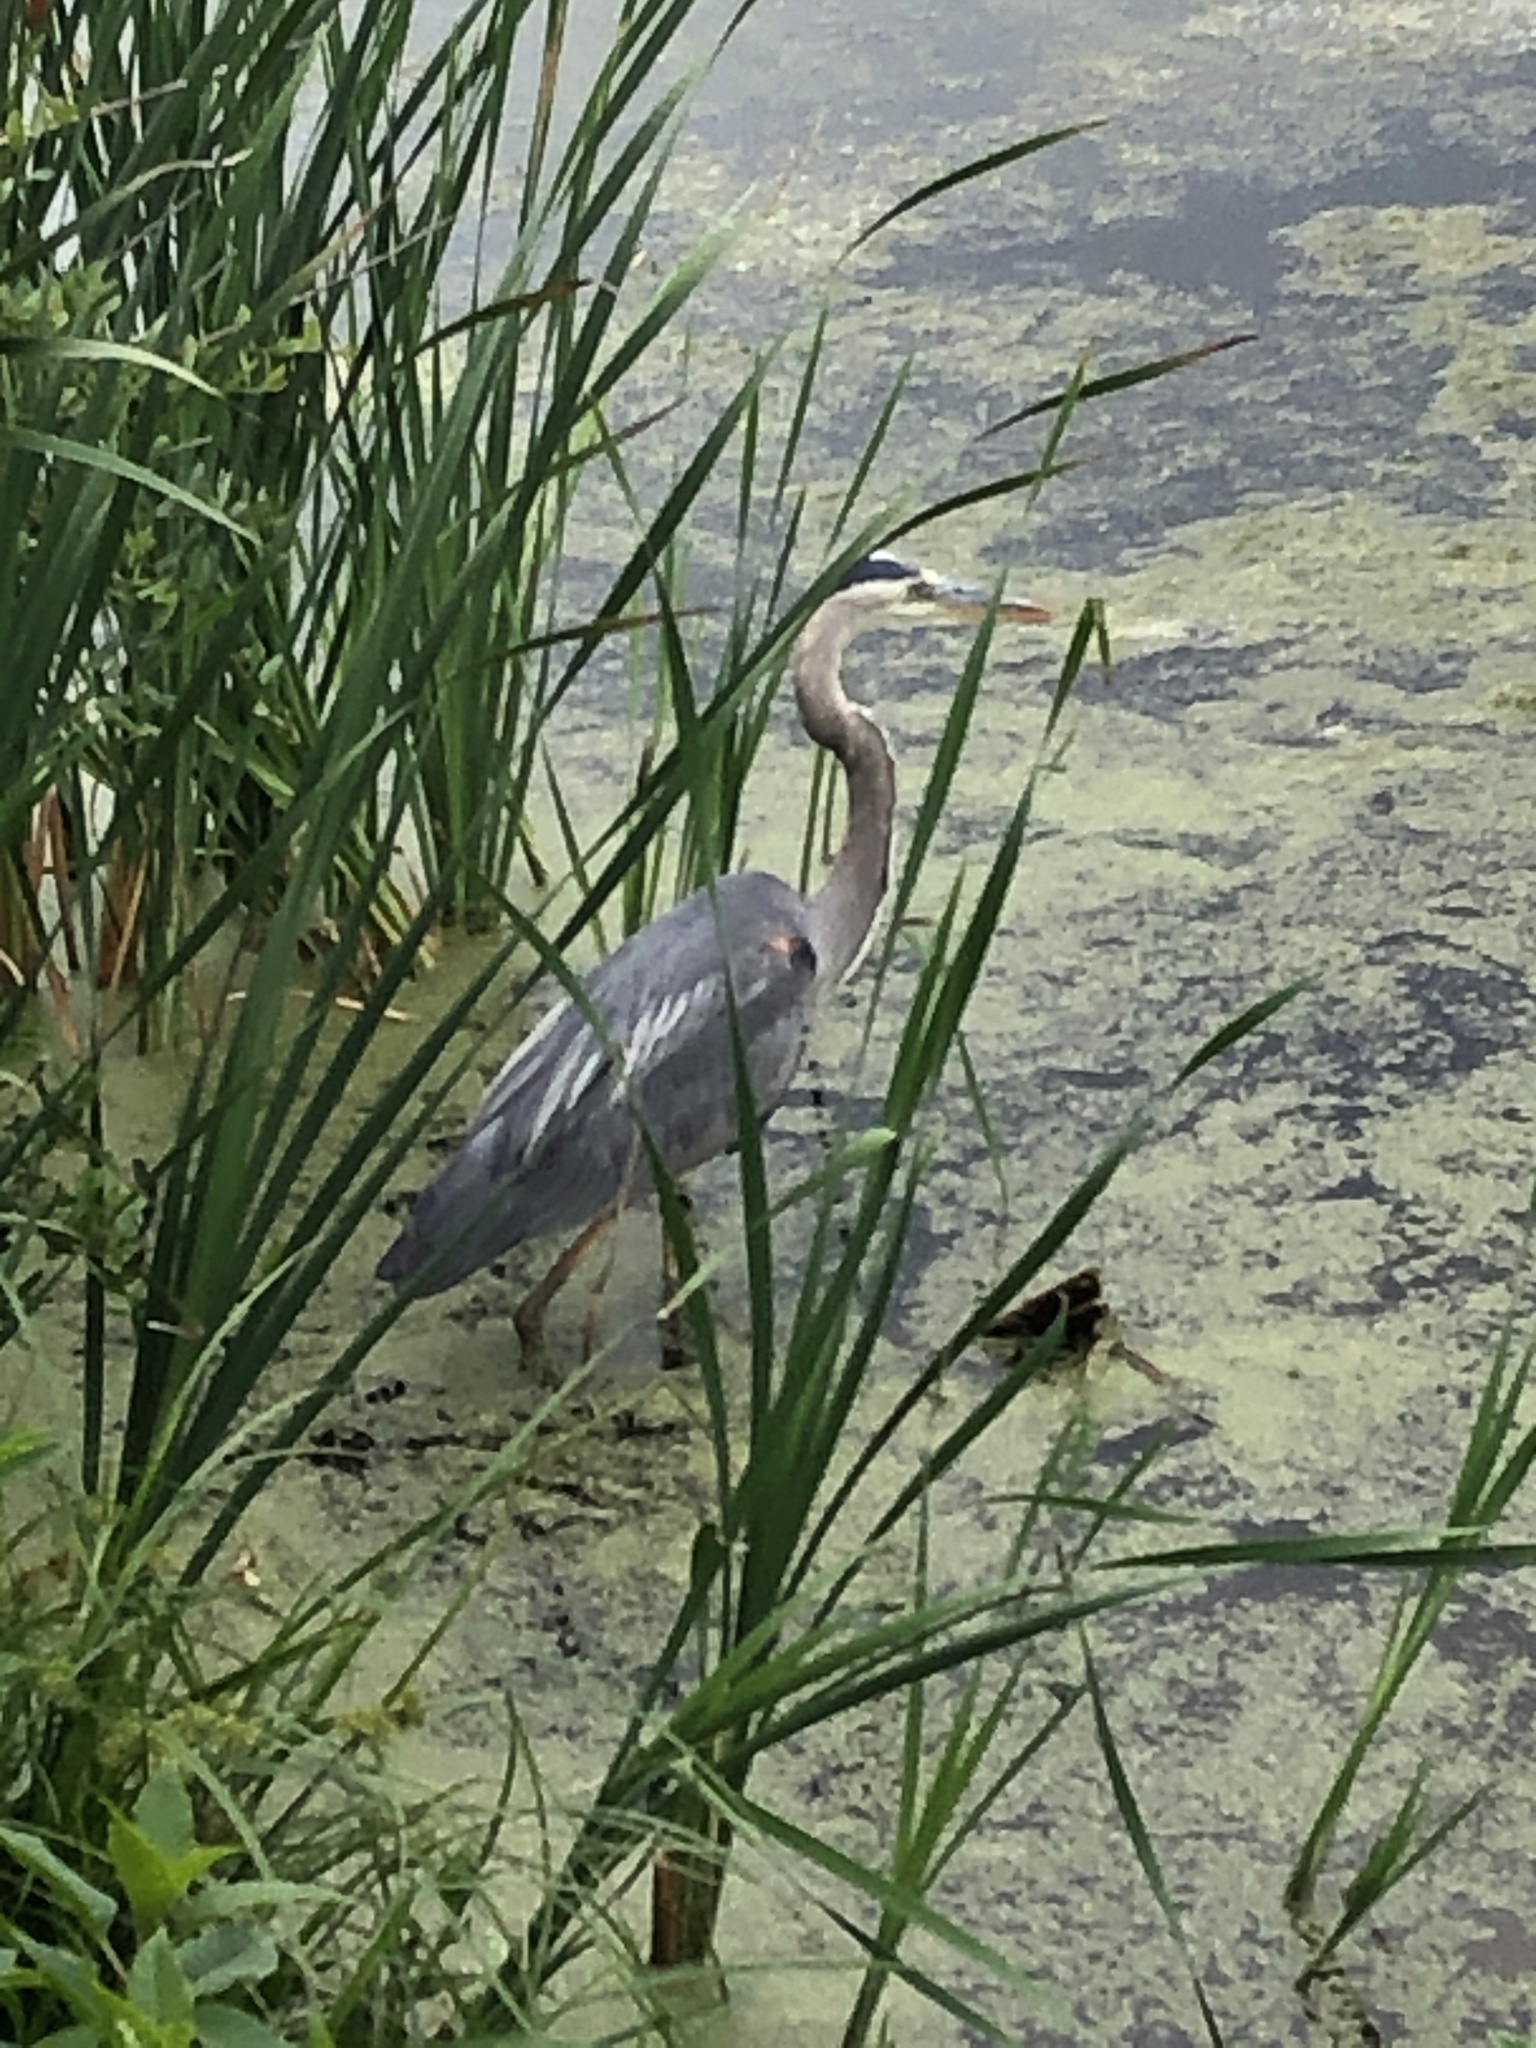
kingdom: Animalia
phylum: Chordata
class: Aves
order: Pelecaniformes
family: Ardeidae
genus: Ardea
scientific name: Ardea herodias
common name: Great blue heron
